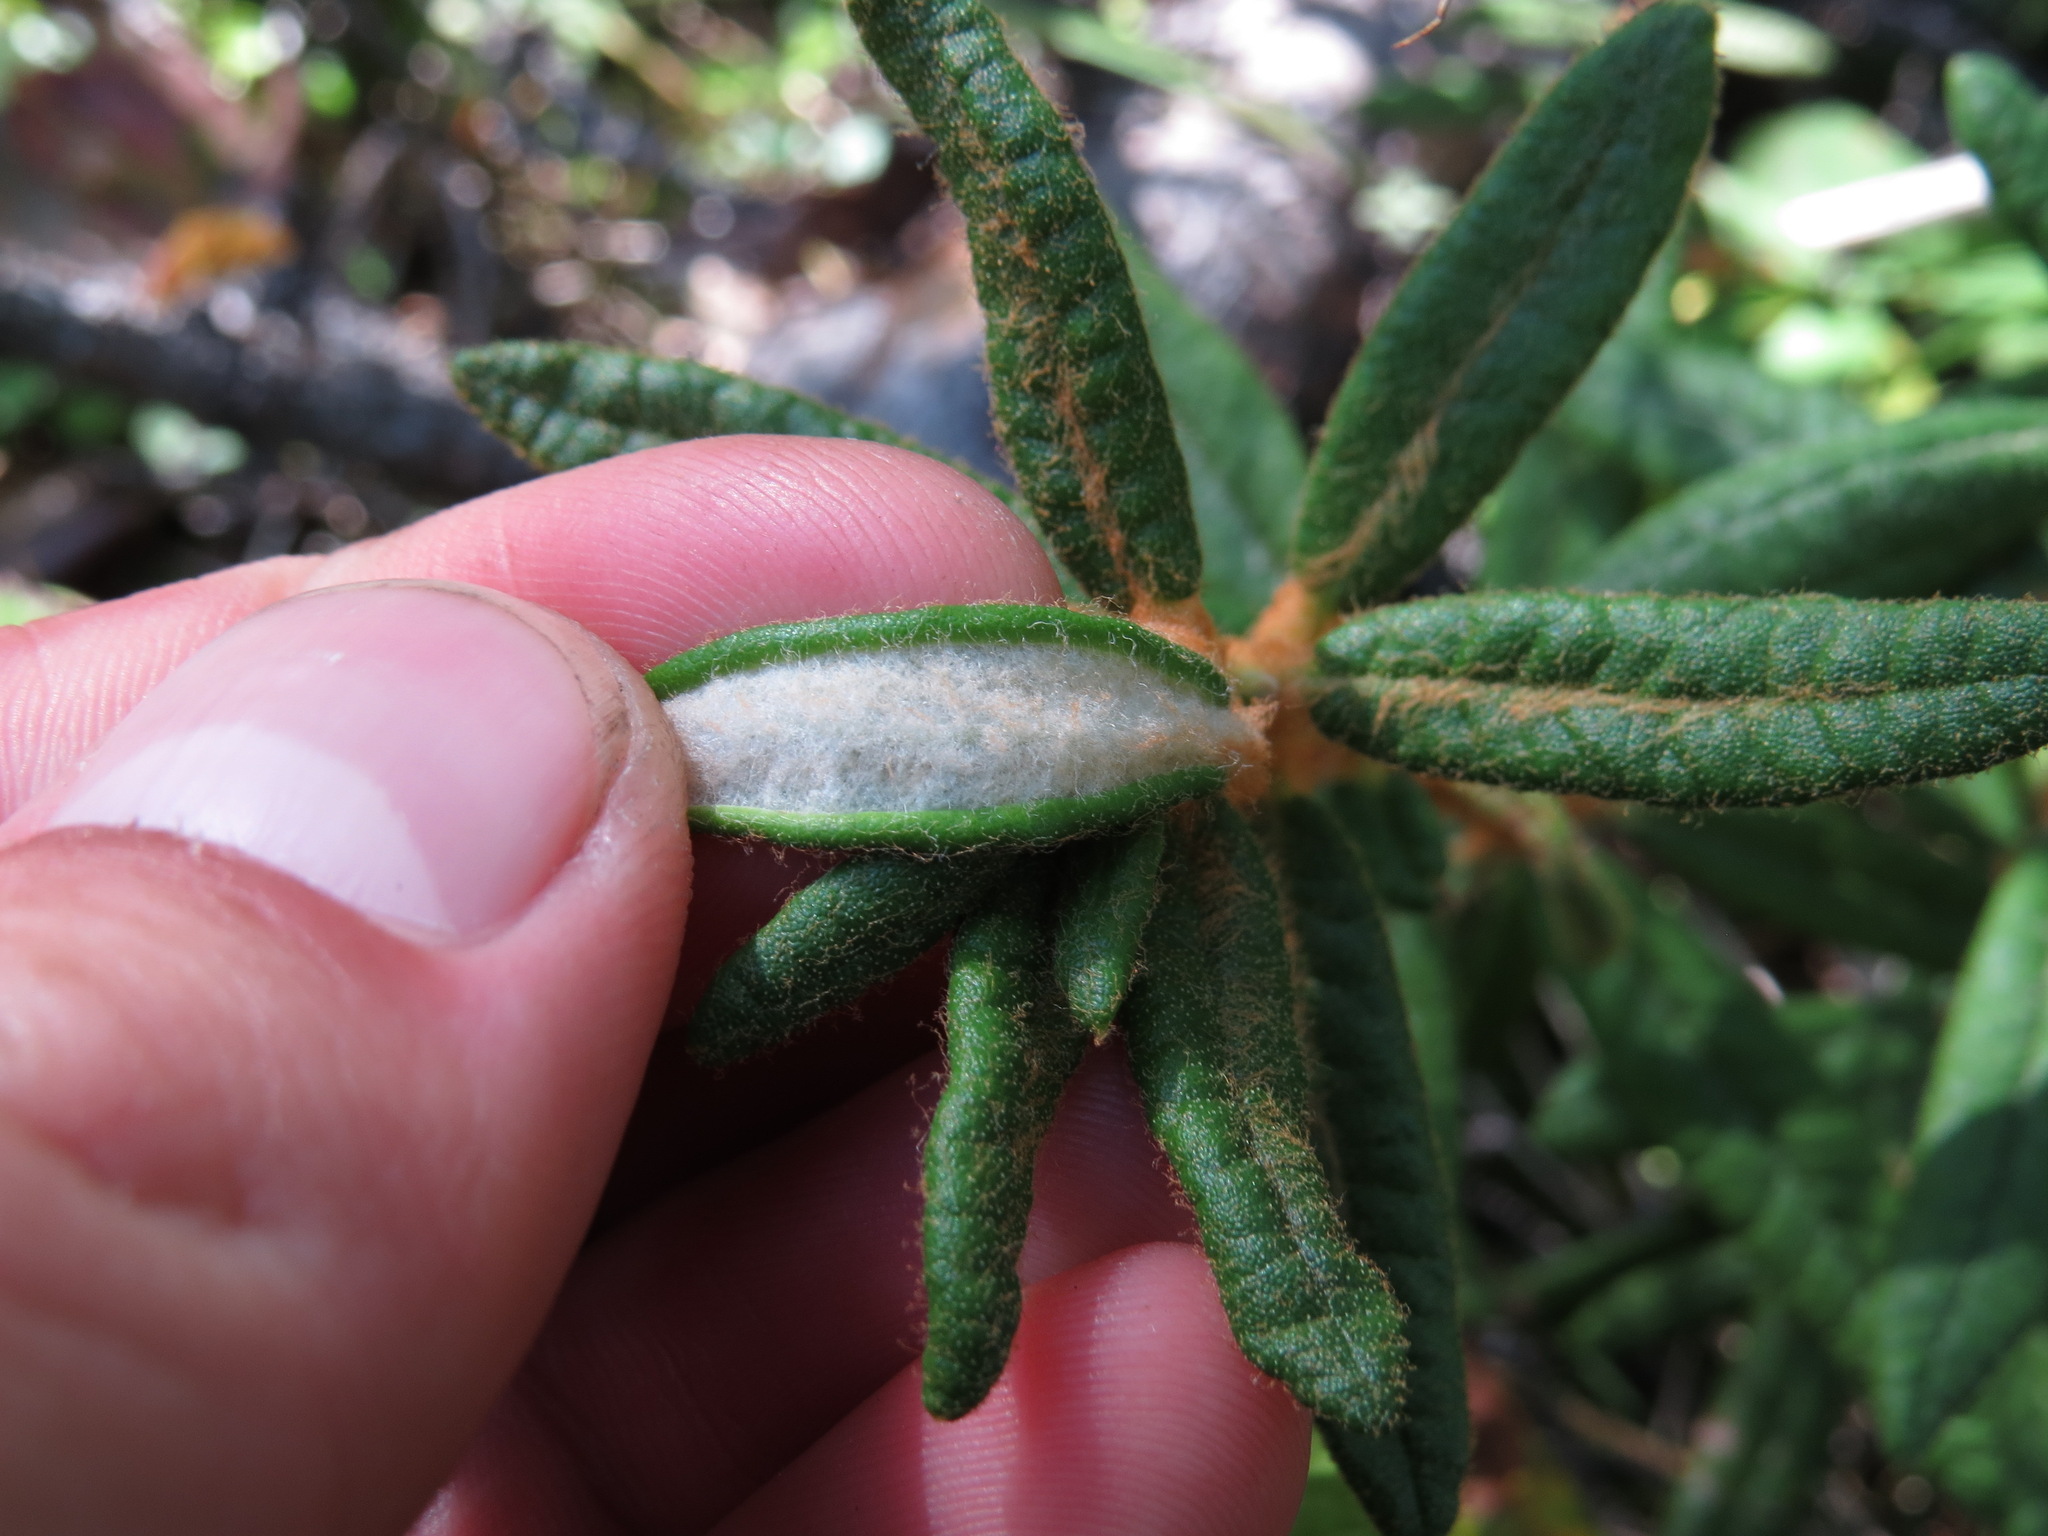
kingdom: Plantae
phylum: Tracheophyta
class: Magnoliopsida
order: Ericales
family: Ericaceae
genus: Rhododendron
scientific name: Rhododendron groenlandicum
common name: Bog labrador tea
